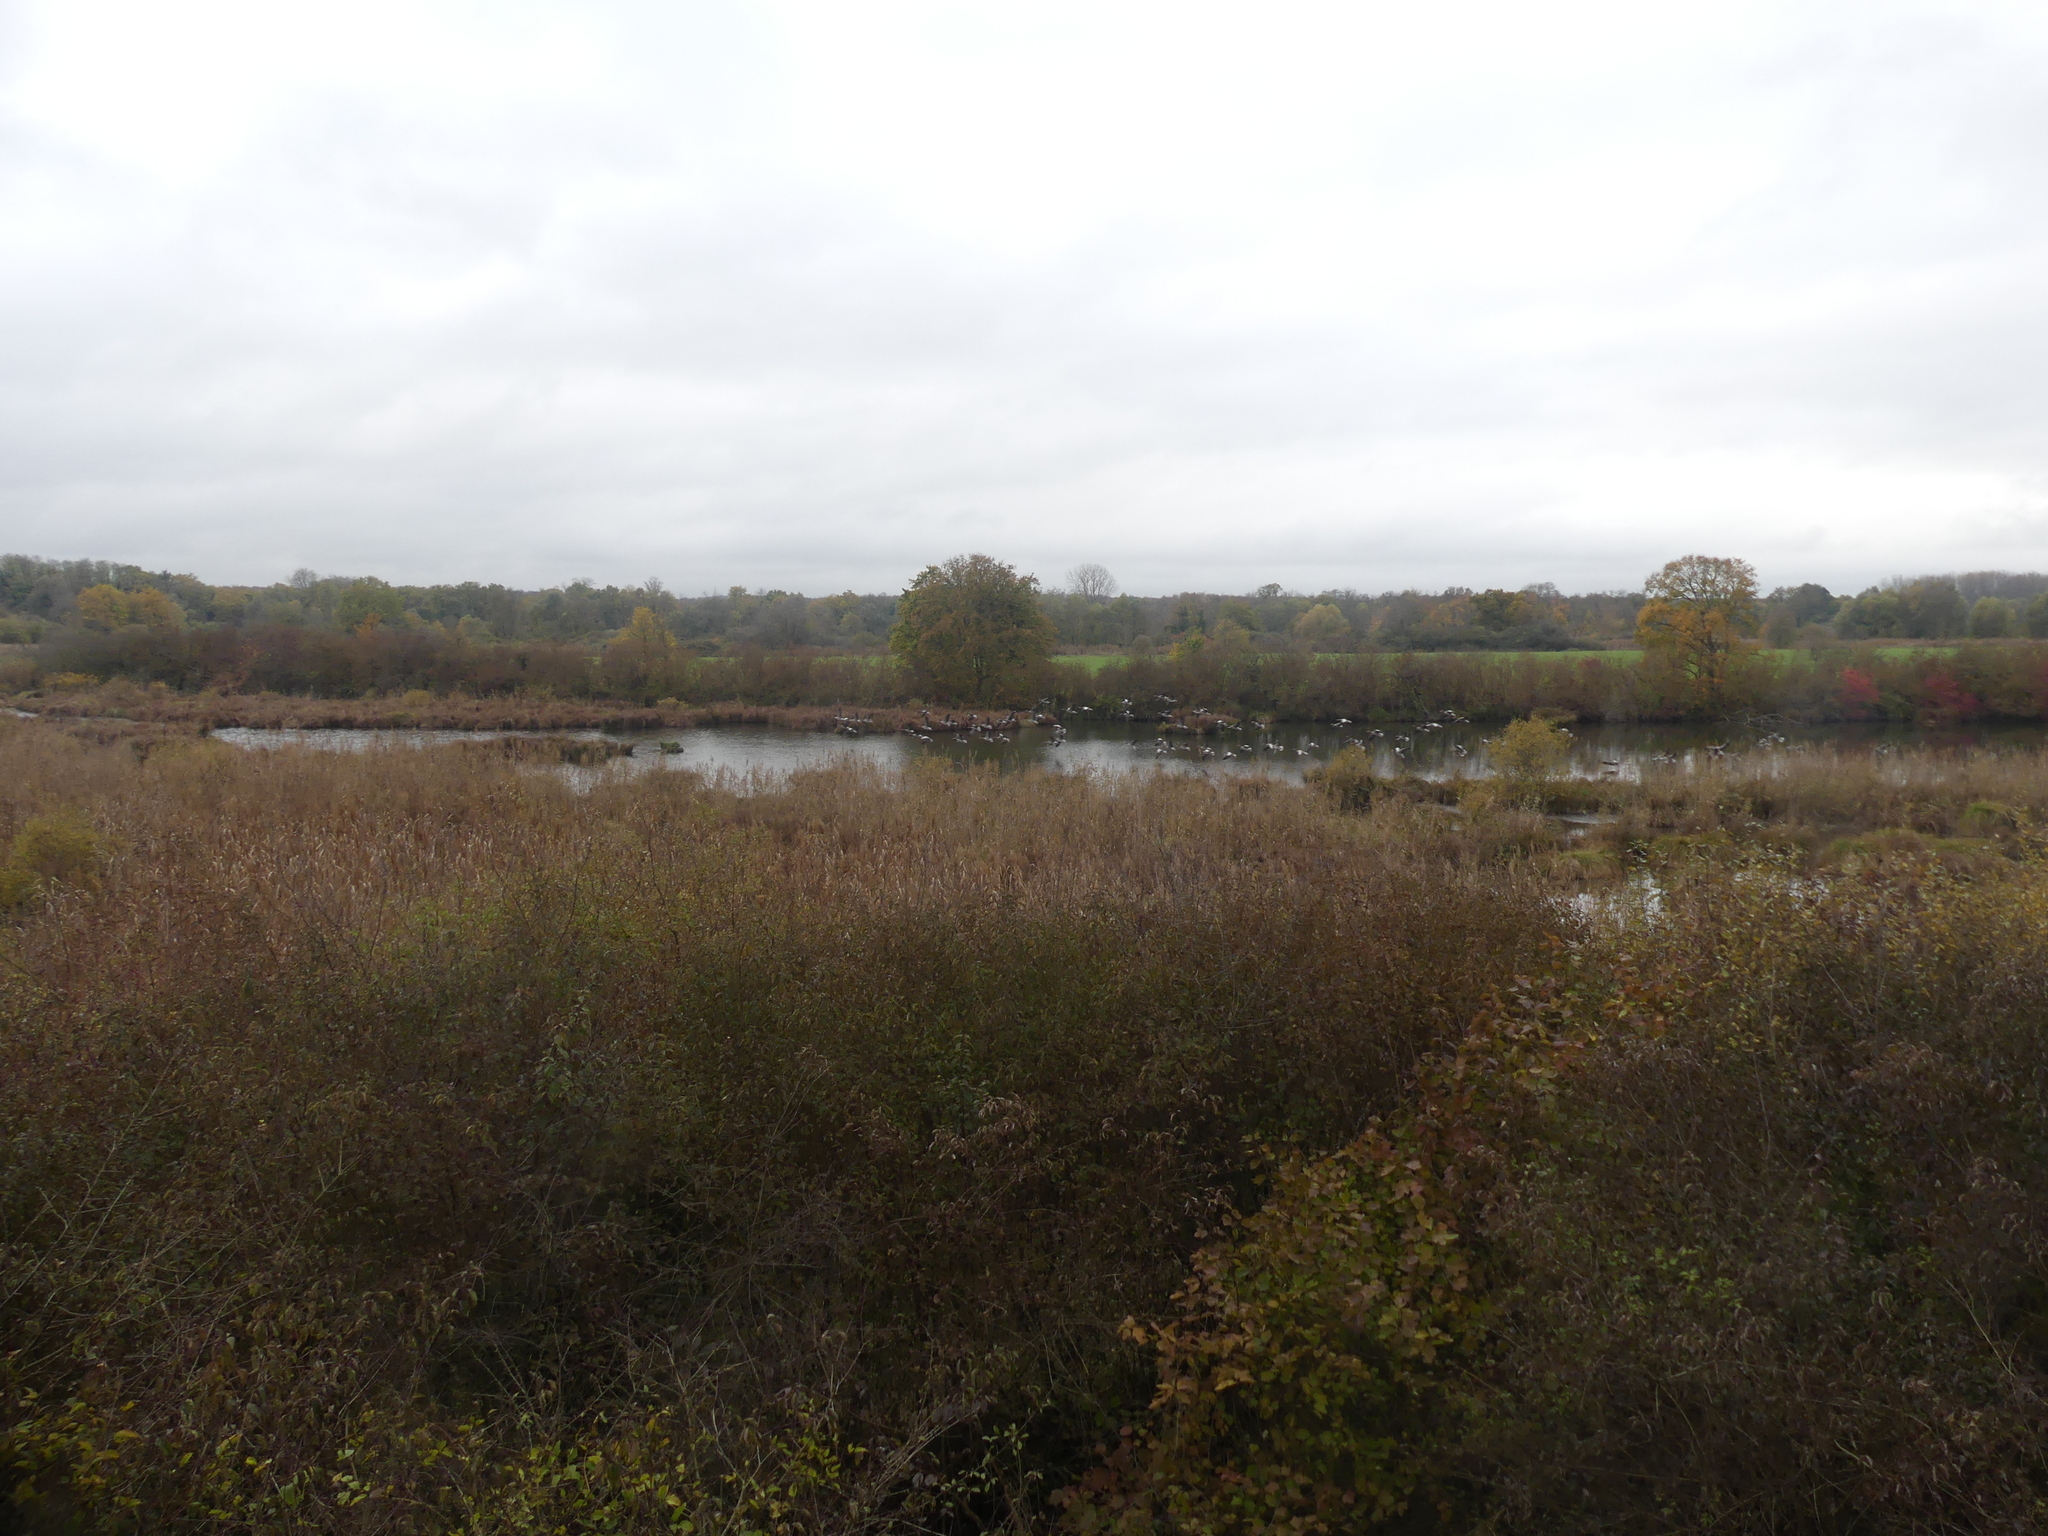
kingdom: Animalia
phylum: Chordata
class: Aves
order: Anseriformes
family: Anatidae
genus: Anser
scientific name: Anser anser
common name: Greylag goose
